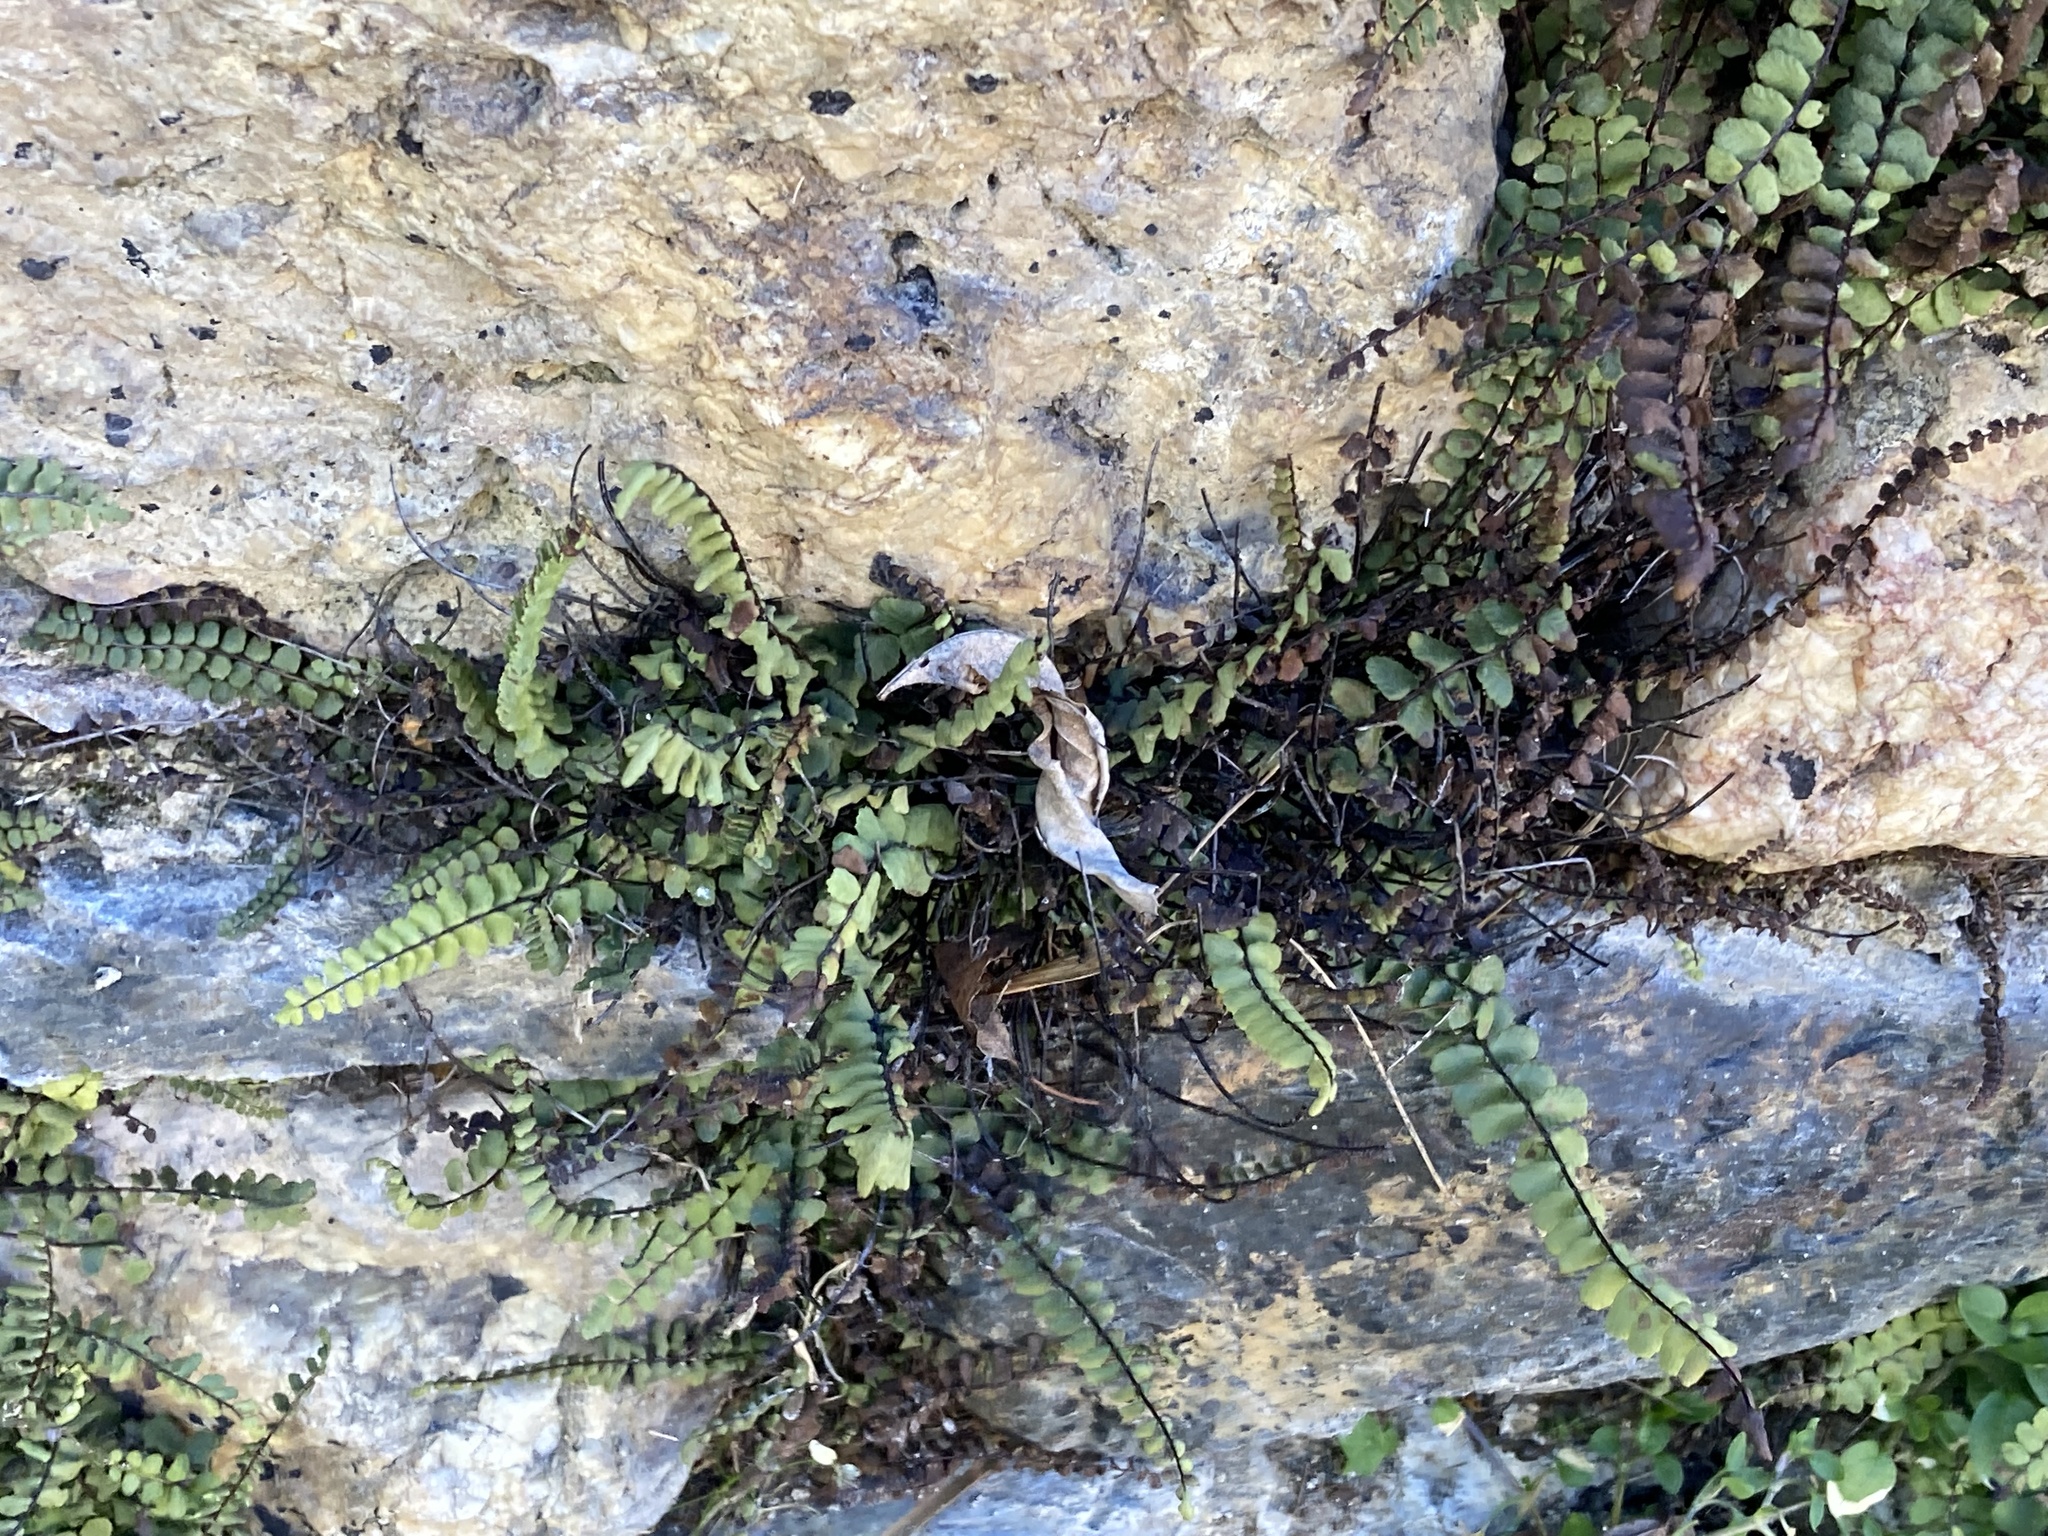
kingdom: Plantae
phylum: Tracheophyta
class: Polypodiopsida
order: Polypodiales
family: Aspleniaceae
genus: Asplenium
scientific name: Asplenium trichomanes
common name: Maidenhair spleenwort
